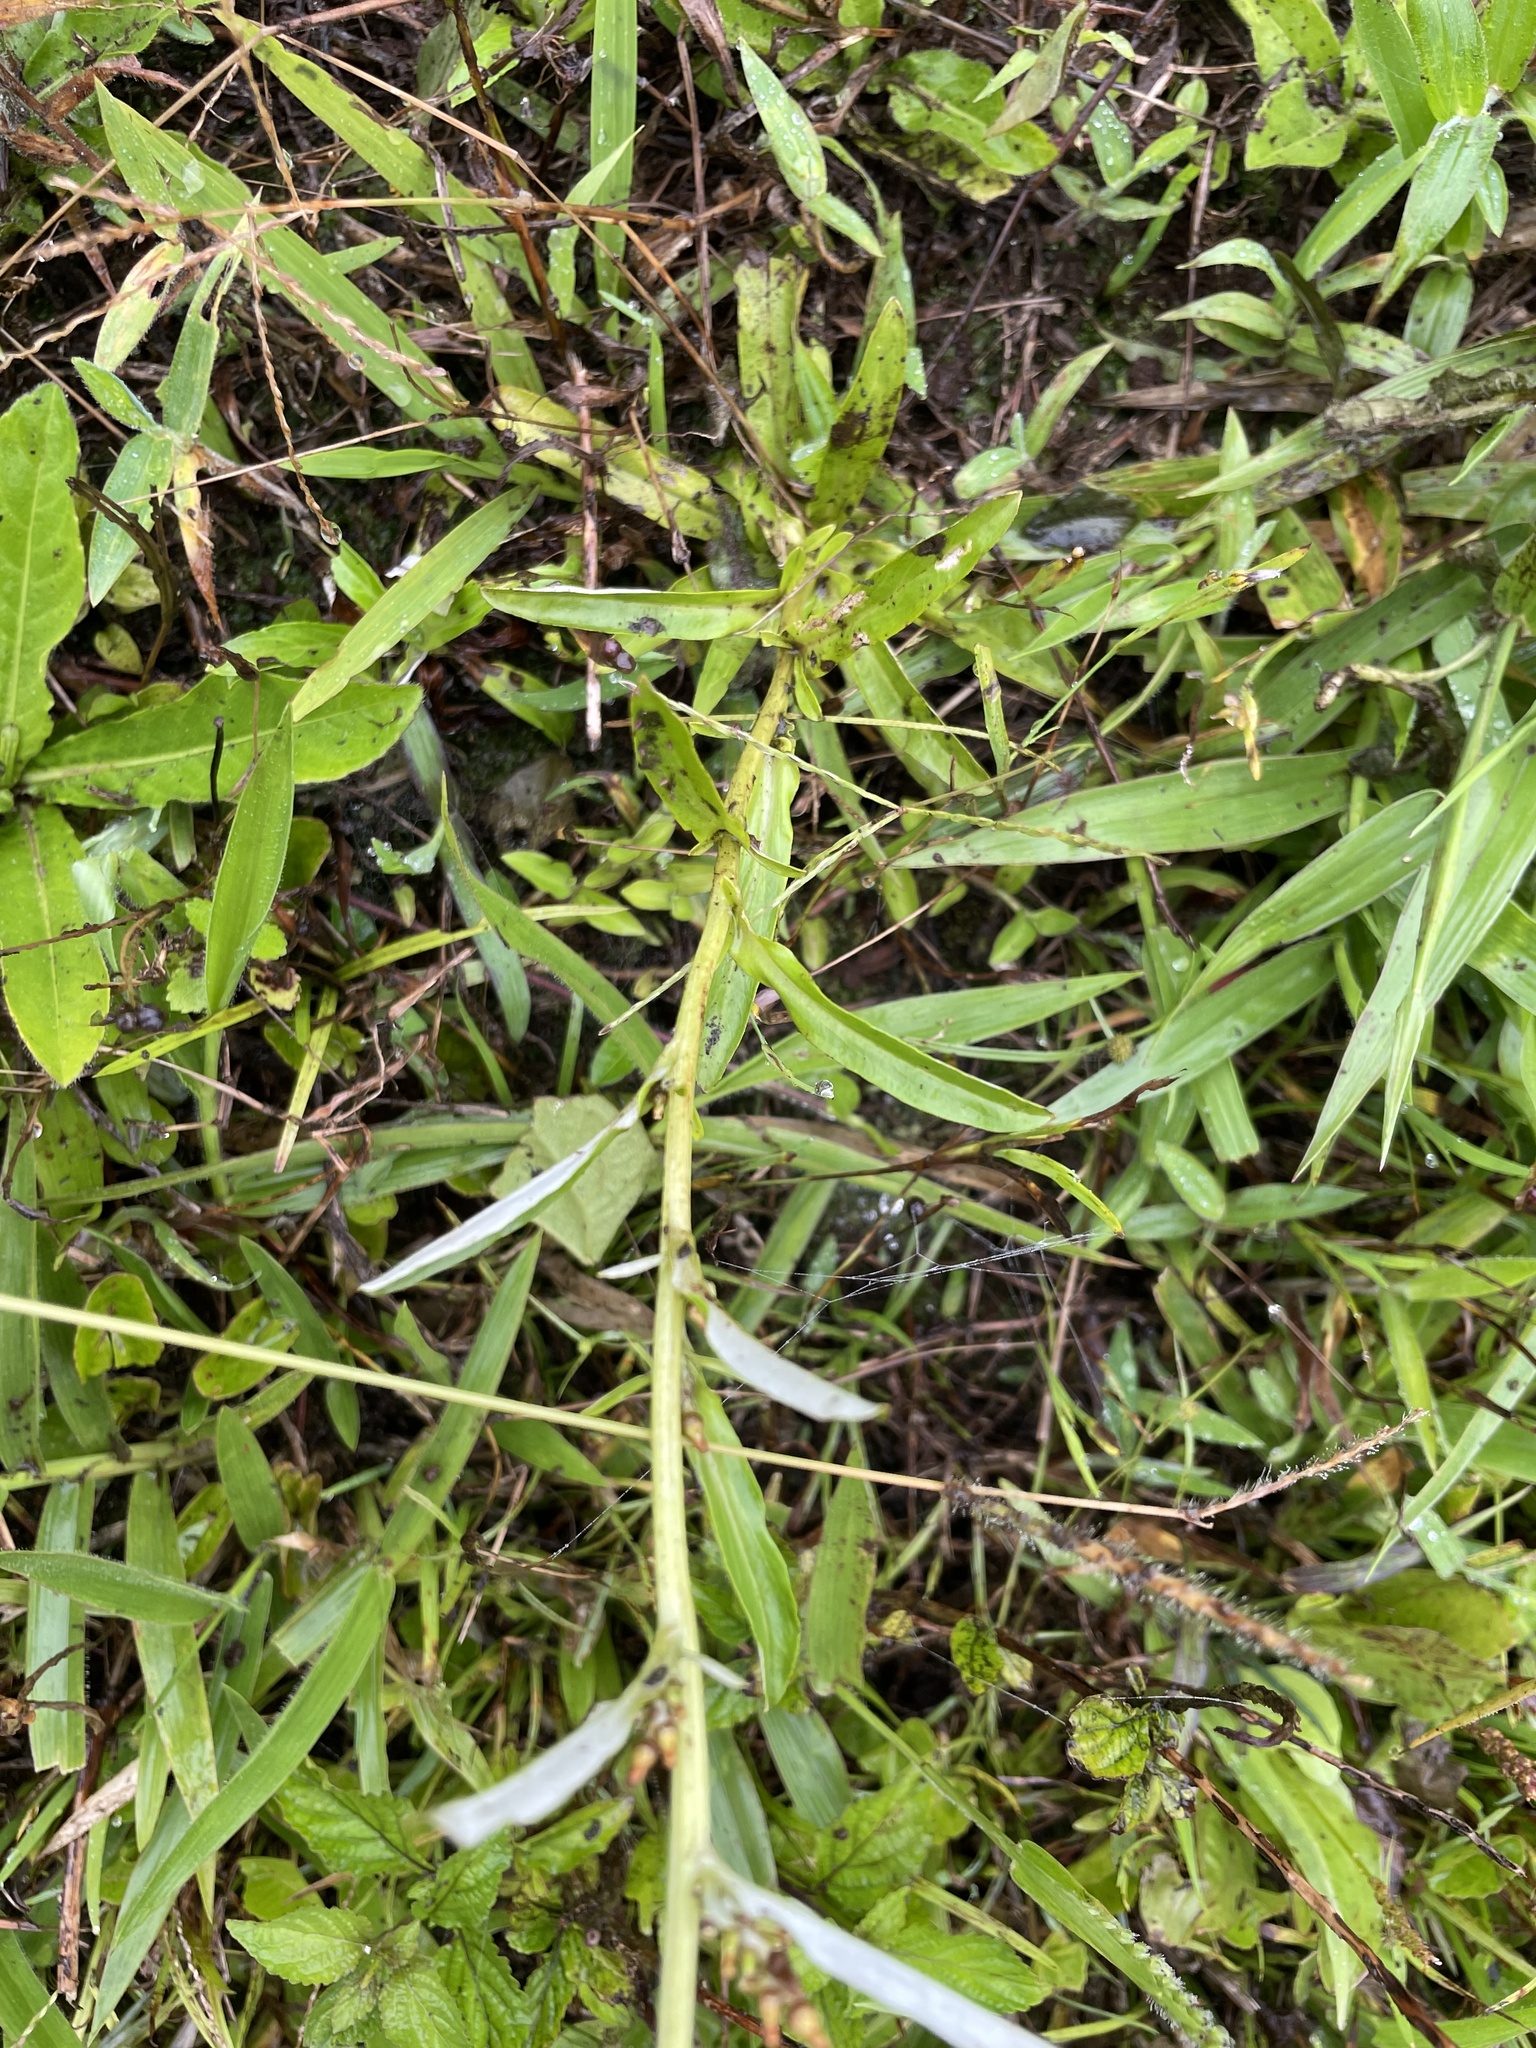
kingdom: Plantae
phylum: Tracheophyta
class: Magnoliopsida
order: Asterales
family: Asteraceae
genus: Gamochaeta
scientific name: Gamochaeta purpurea
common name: Purple cudweed
